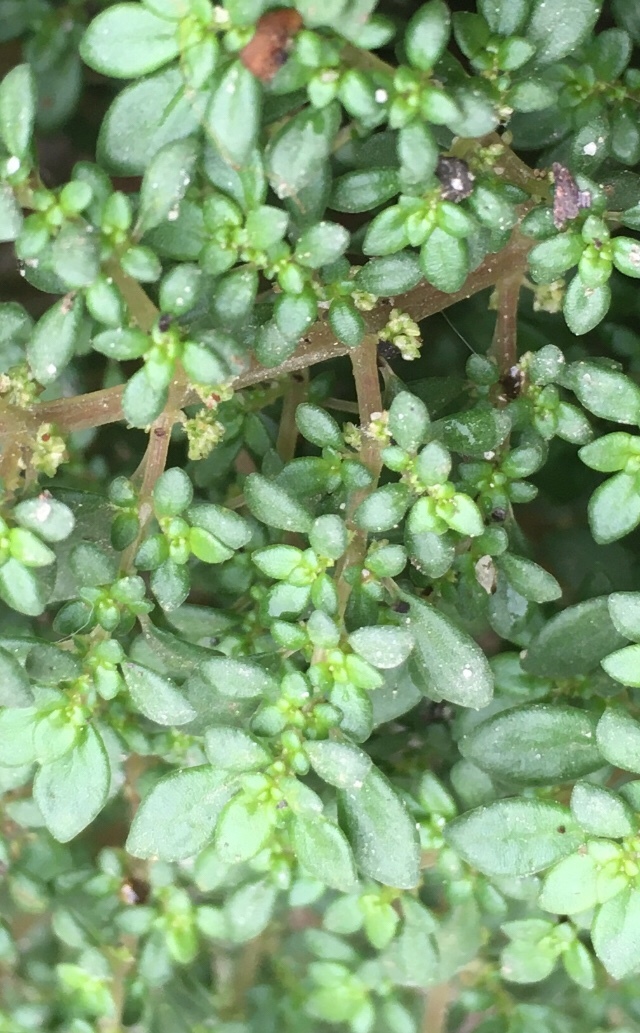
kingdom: Plantae
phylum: Tracheophyta
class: Magnoliopsida
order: Rosales
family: Urticaceae
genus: Pilea
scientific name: Pilea microphylla
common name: Artillery-plant
